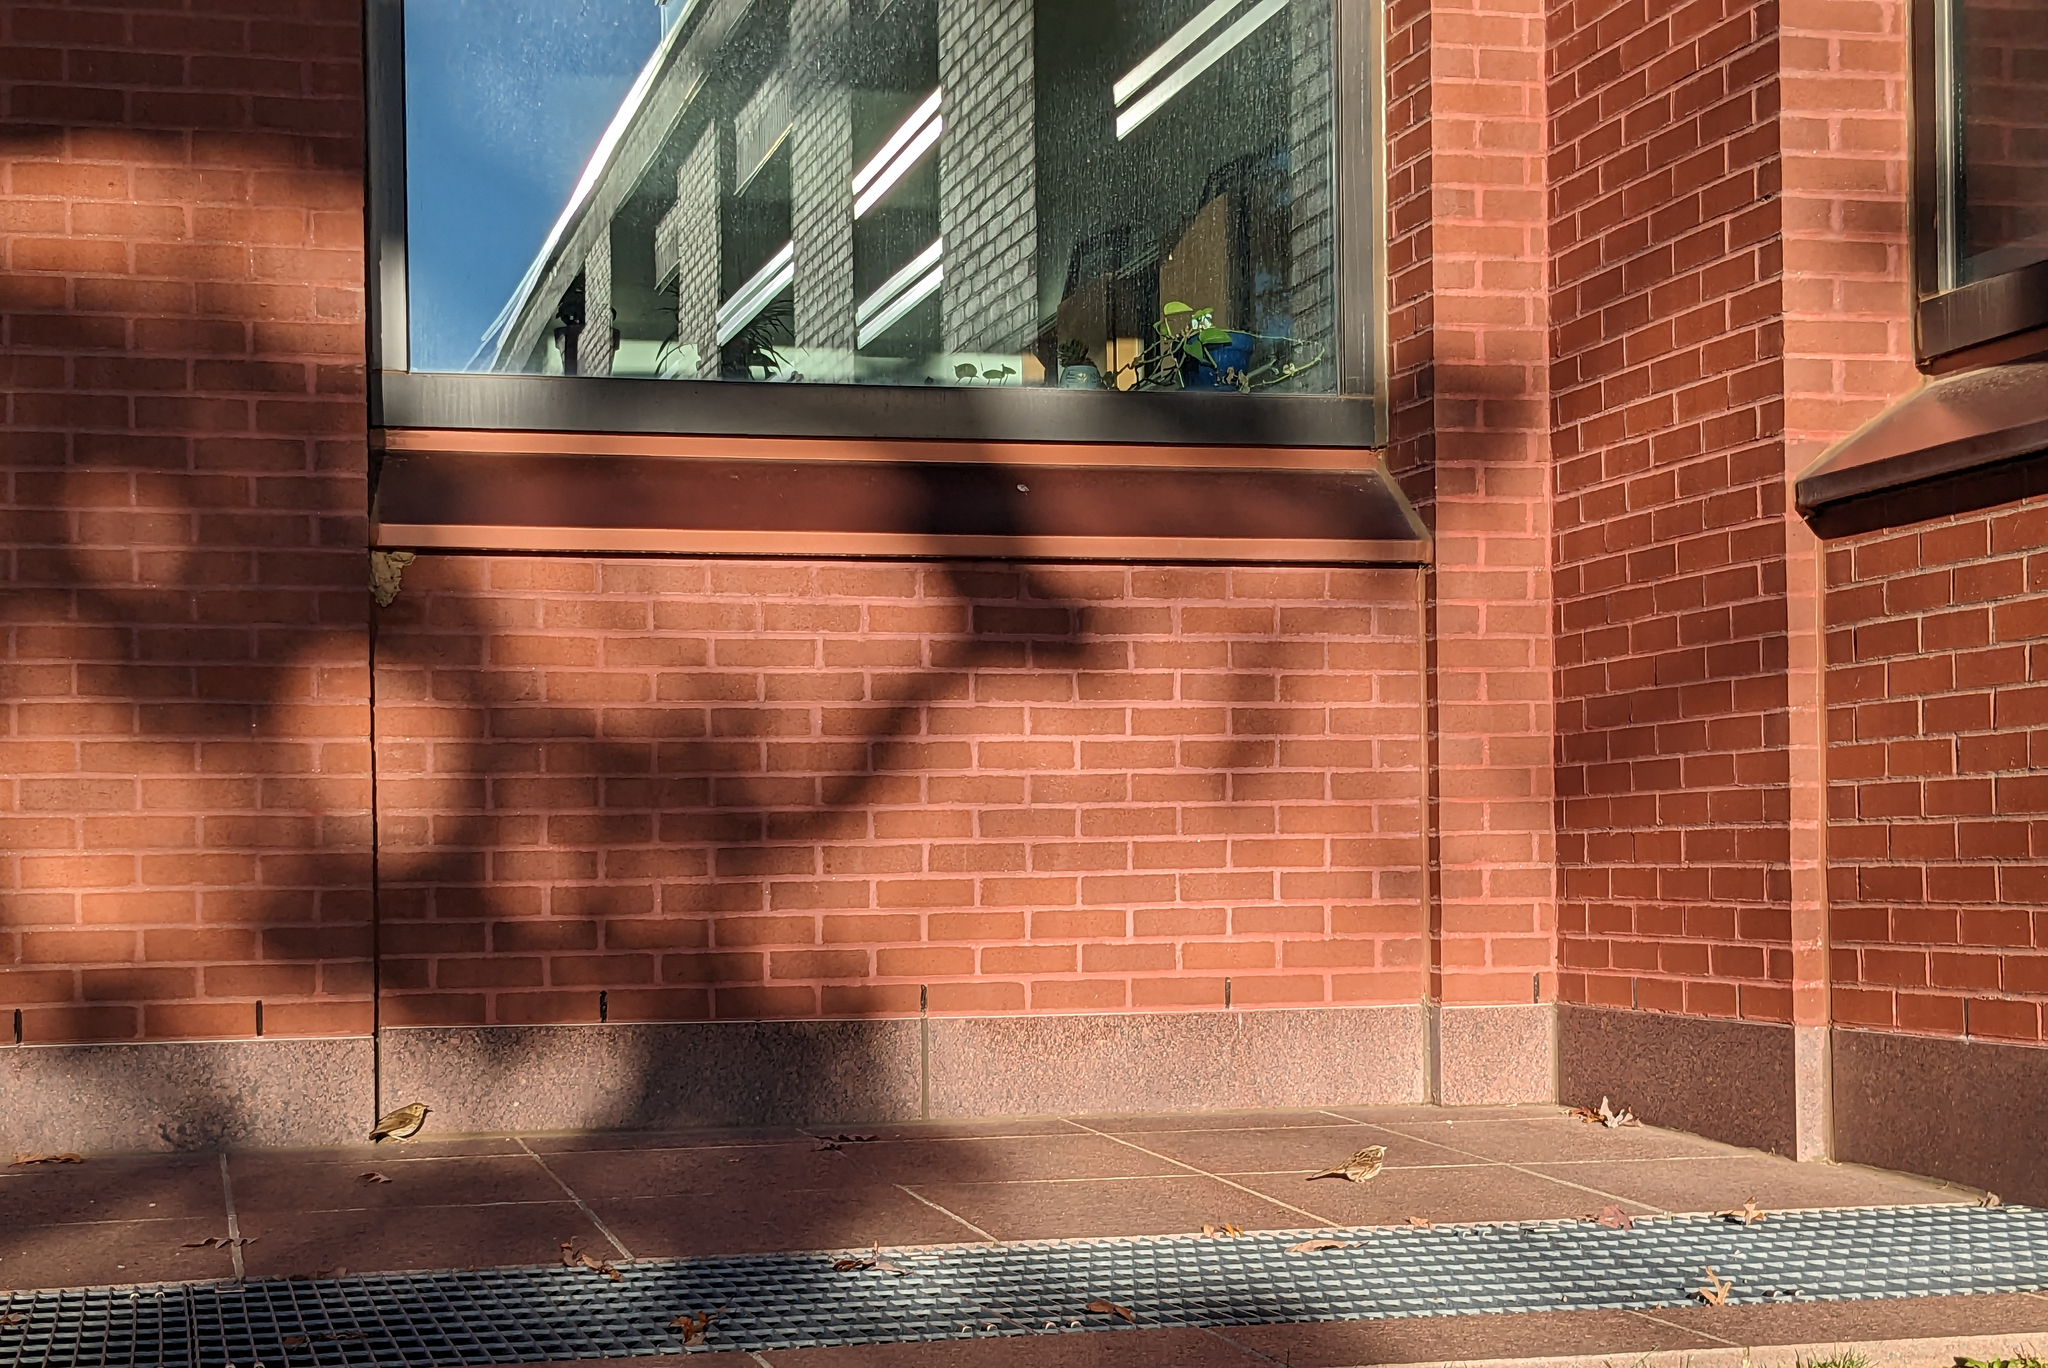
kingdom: Animalia
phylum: Chordata
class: Aves
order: Passeriformes
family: Passerellidae
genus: Melospiza
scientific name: Melospiza melodia
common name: Song sparrow
